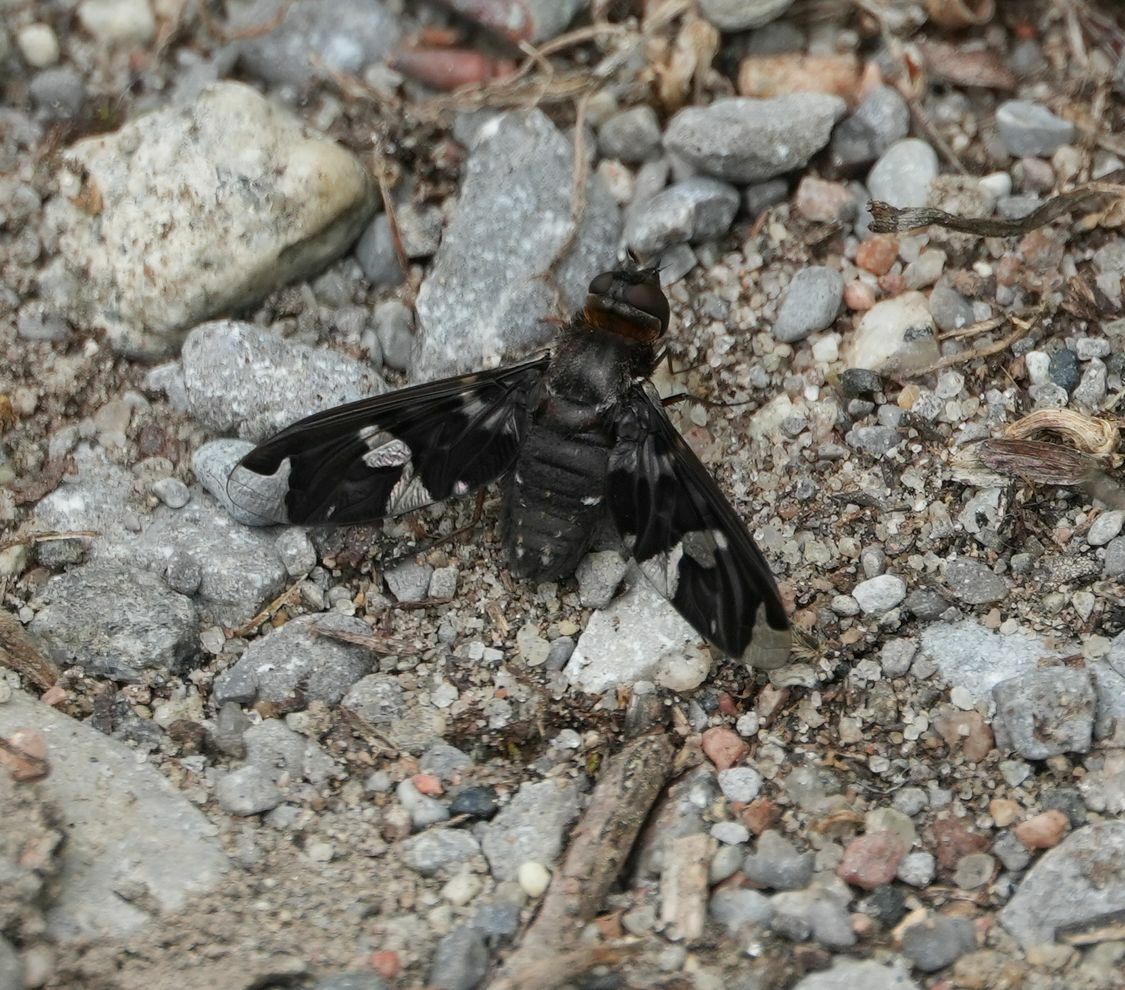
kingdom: Animalia
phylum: Arthropoda
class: Insecta
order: Diptera
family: Bombyliidae
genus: Exoprosopa
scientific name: Exoprosopa decora
